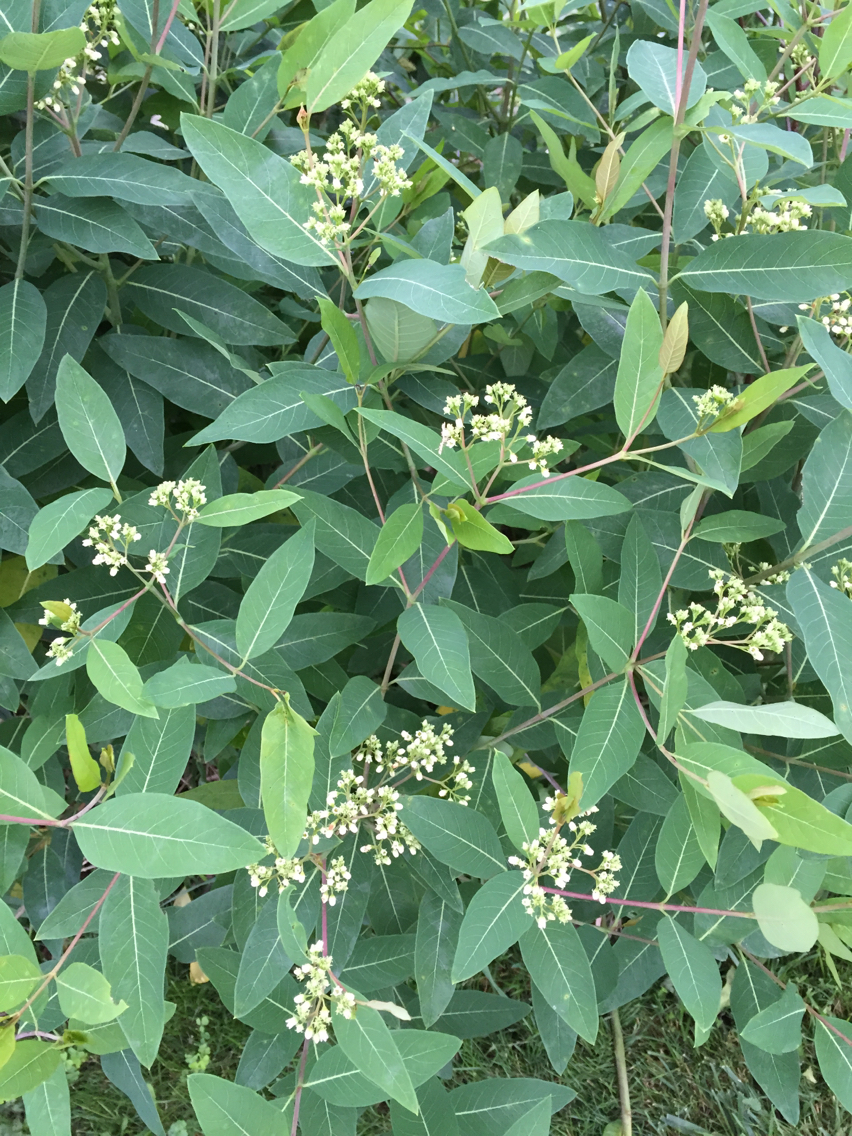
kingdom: Plantae
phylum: Tracheophyta
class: Magnoliopsida
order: Gentianales
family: Apocynaceae
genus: Apocynum
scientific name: Apocynum cannabinum
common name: Hemp dogbane
